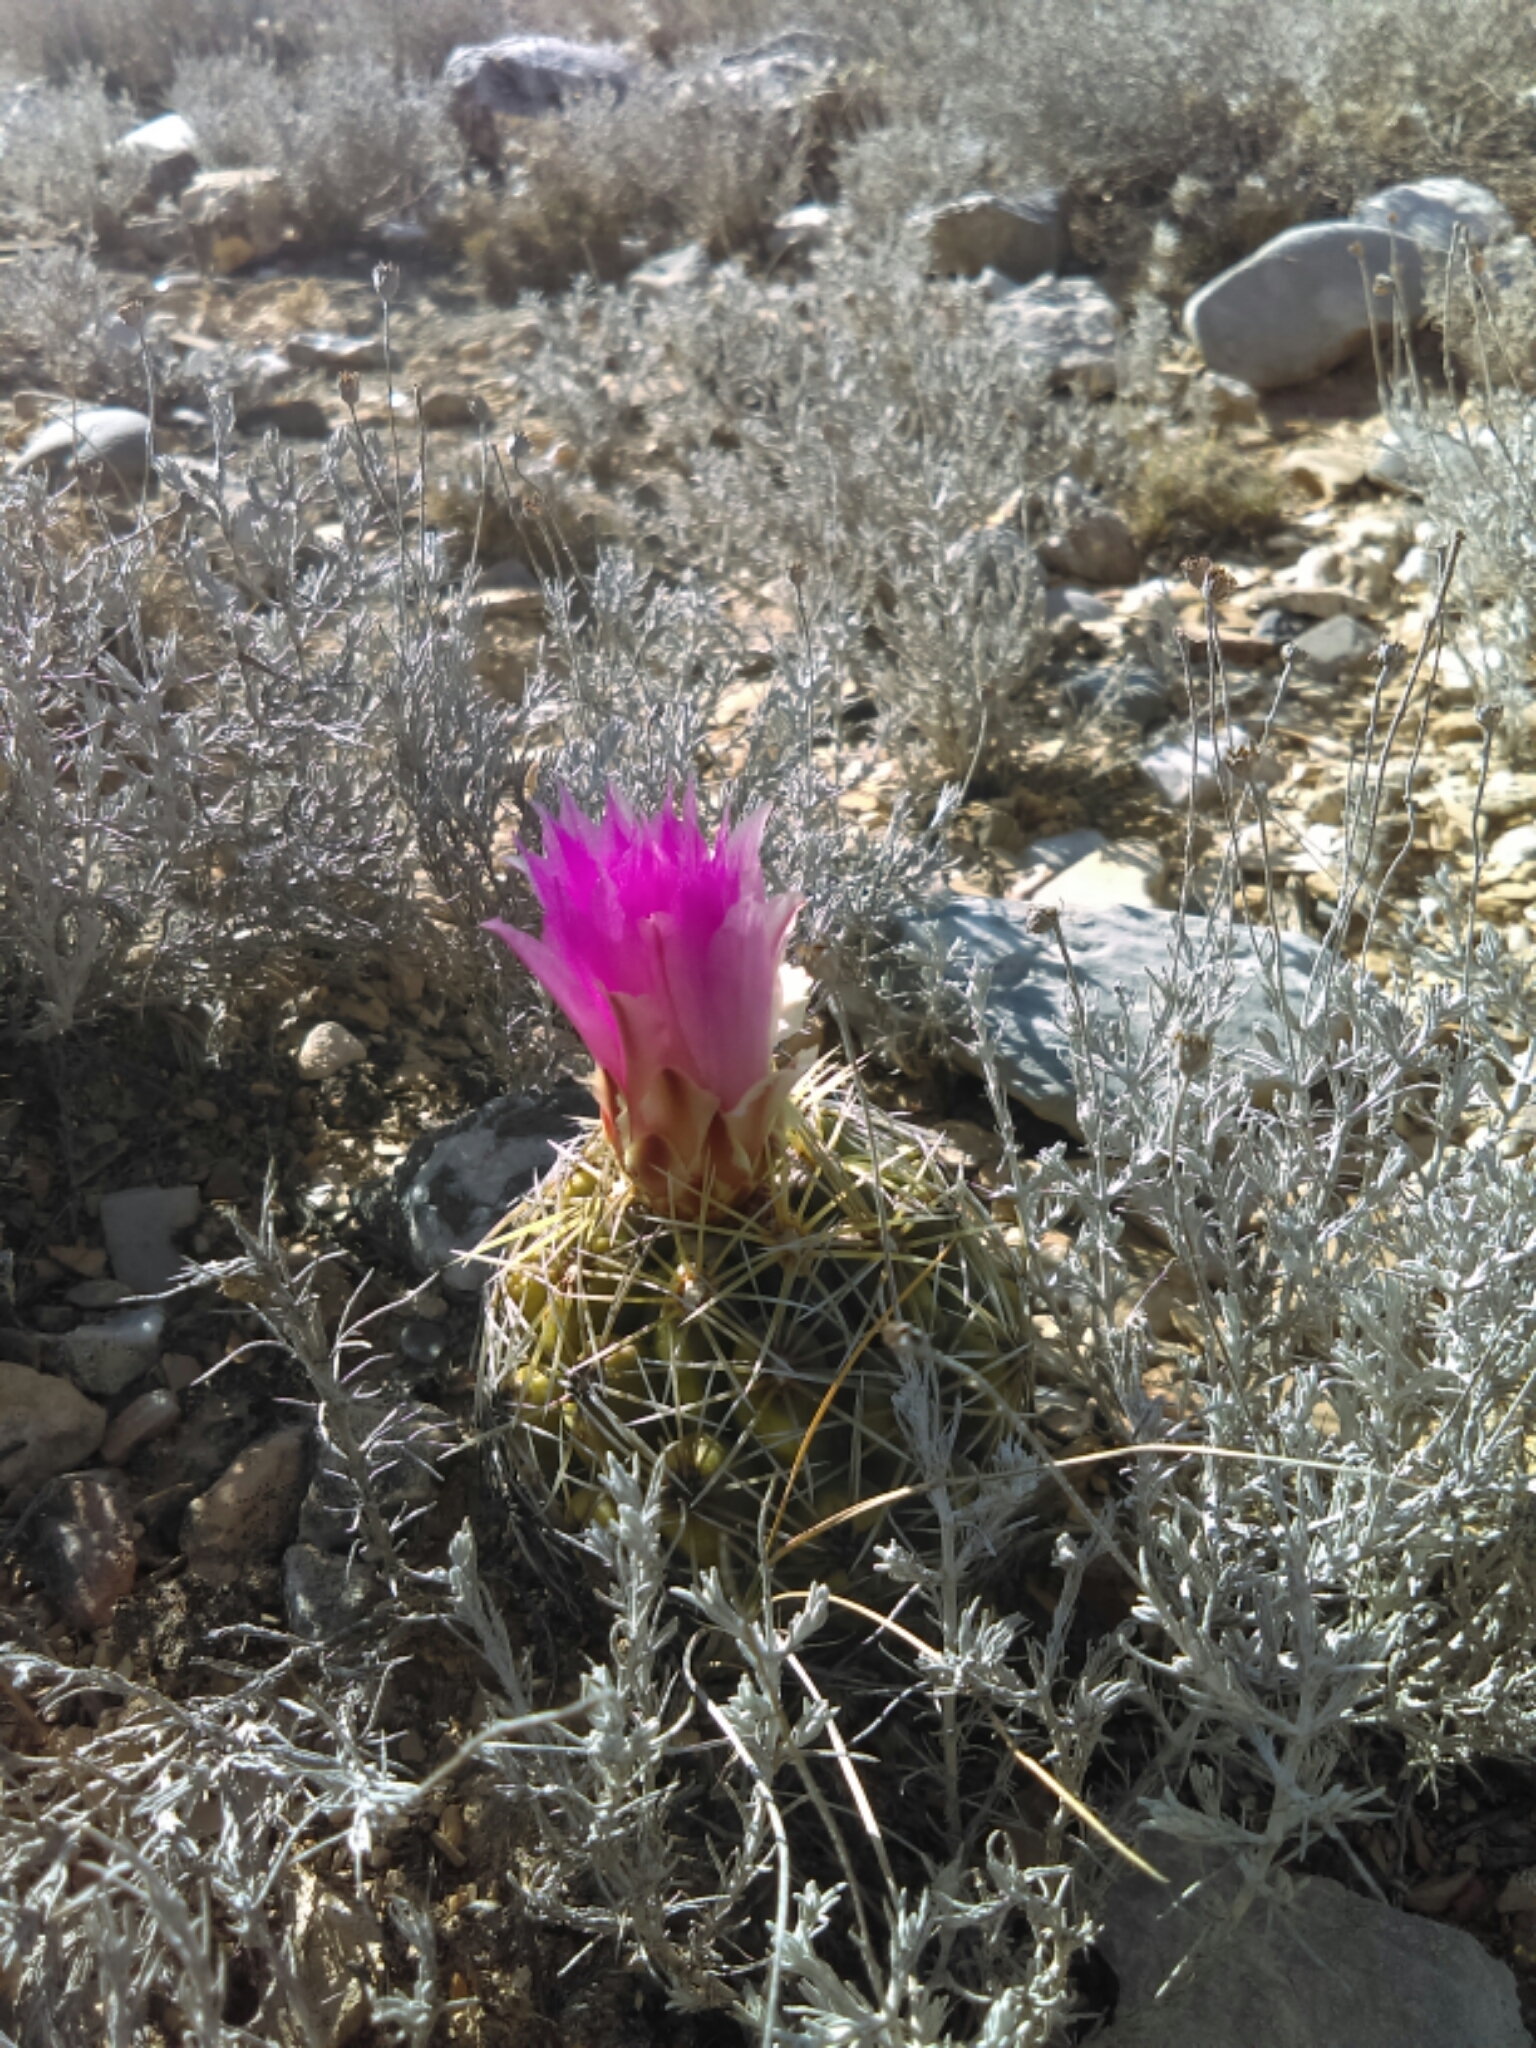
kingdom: Plantae
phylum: Tracheophyta
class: Magnoliopsida
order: Caryophyllales
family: Cactaceae
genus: Thelocactus
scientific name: Thelocactus leucacanthus
